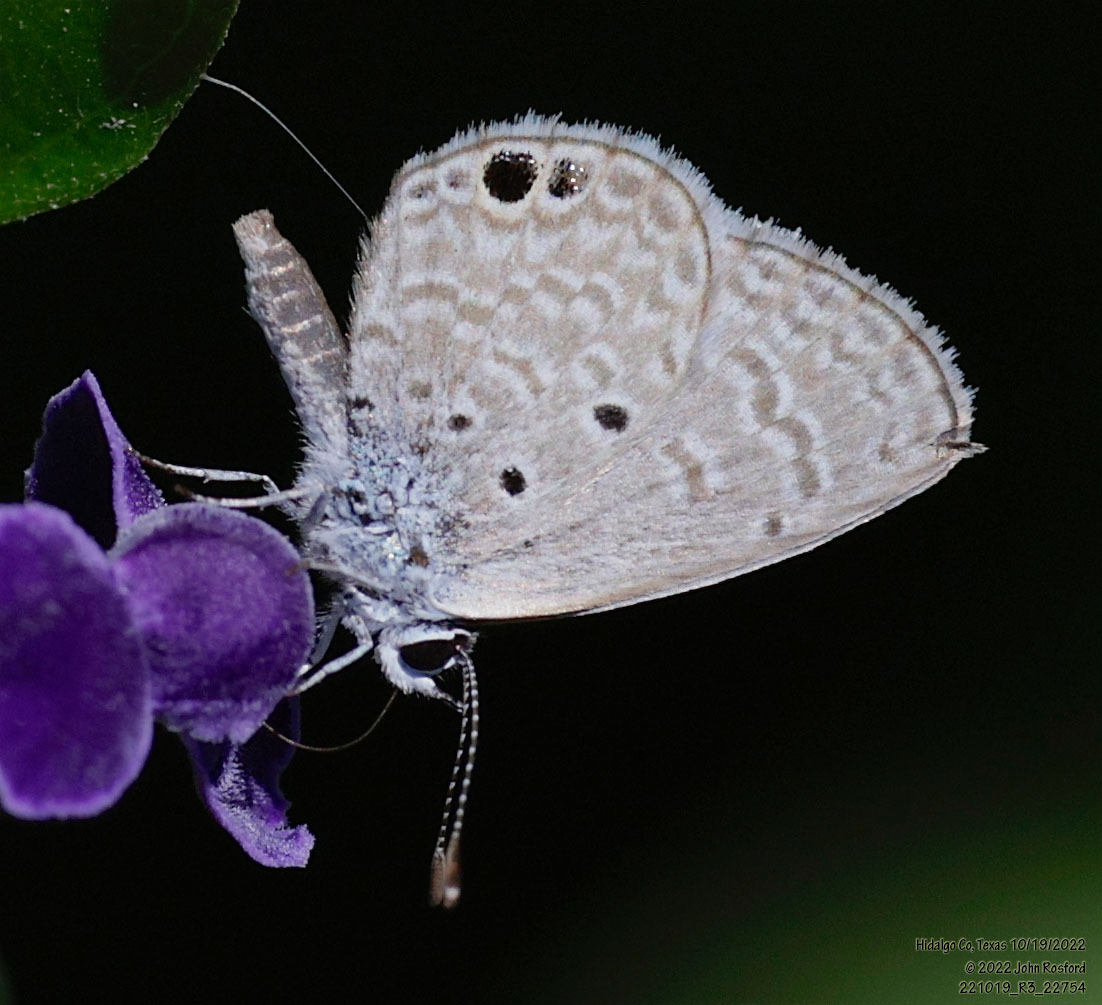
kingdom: Animalia
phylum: Arthropoda
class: Insecta
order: Lepidoptera
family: Lycaenidae
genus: Hemiargus
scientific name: Hemiargus ceraunus
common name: Ceraunus blue
